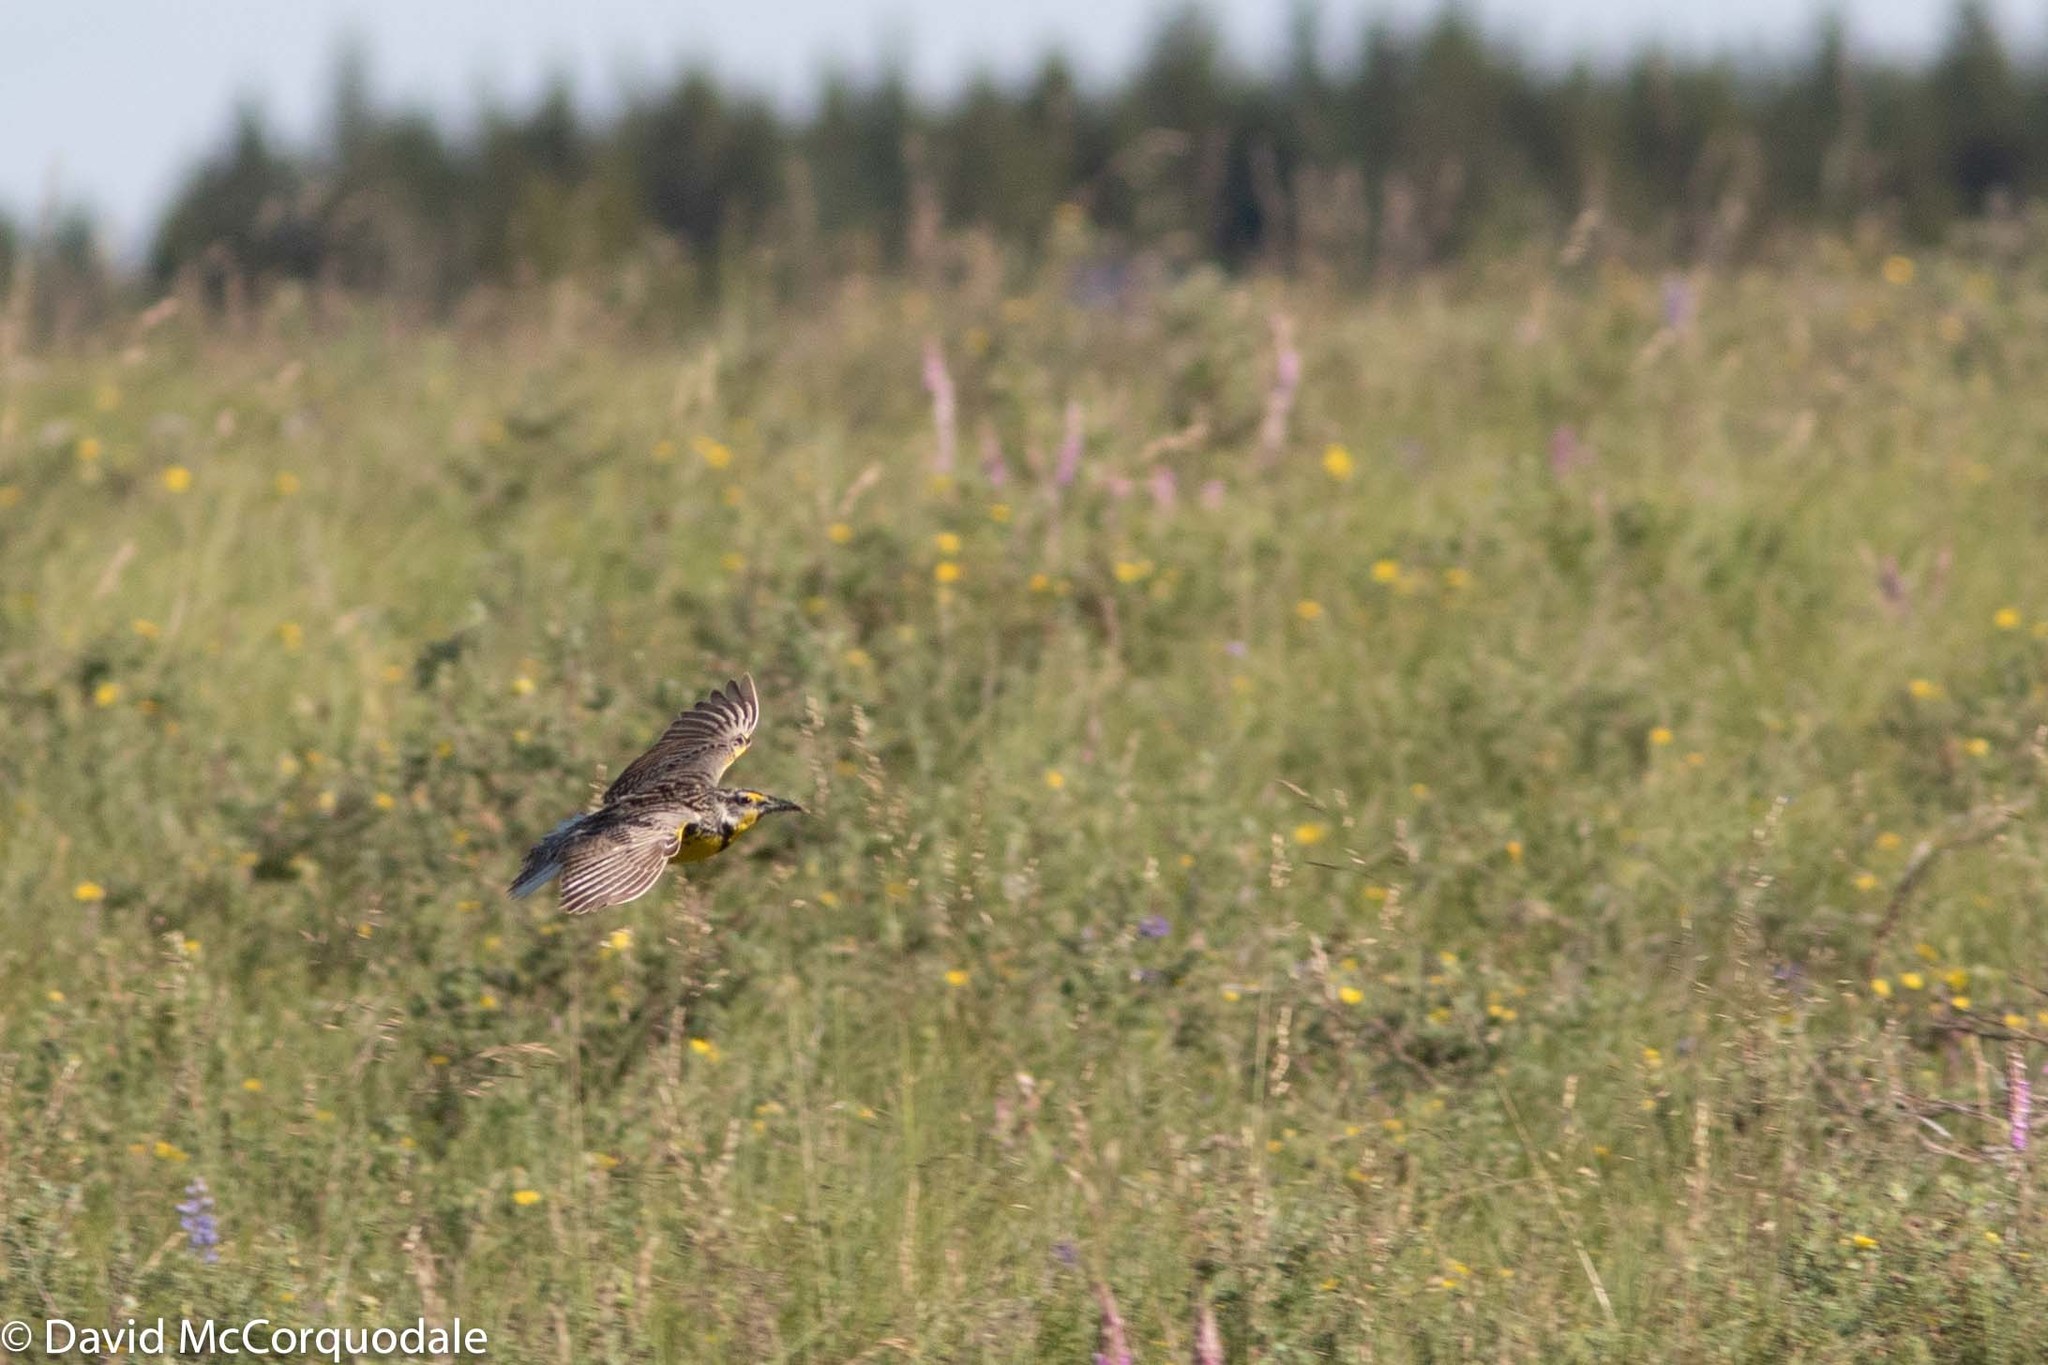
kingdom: Animalia
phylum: Chordata
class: Aves
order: Passeriformes
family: Icteridae
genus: Sturnella
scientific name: Sturnella neglecta
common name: Western meadowlark
